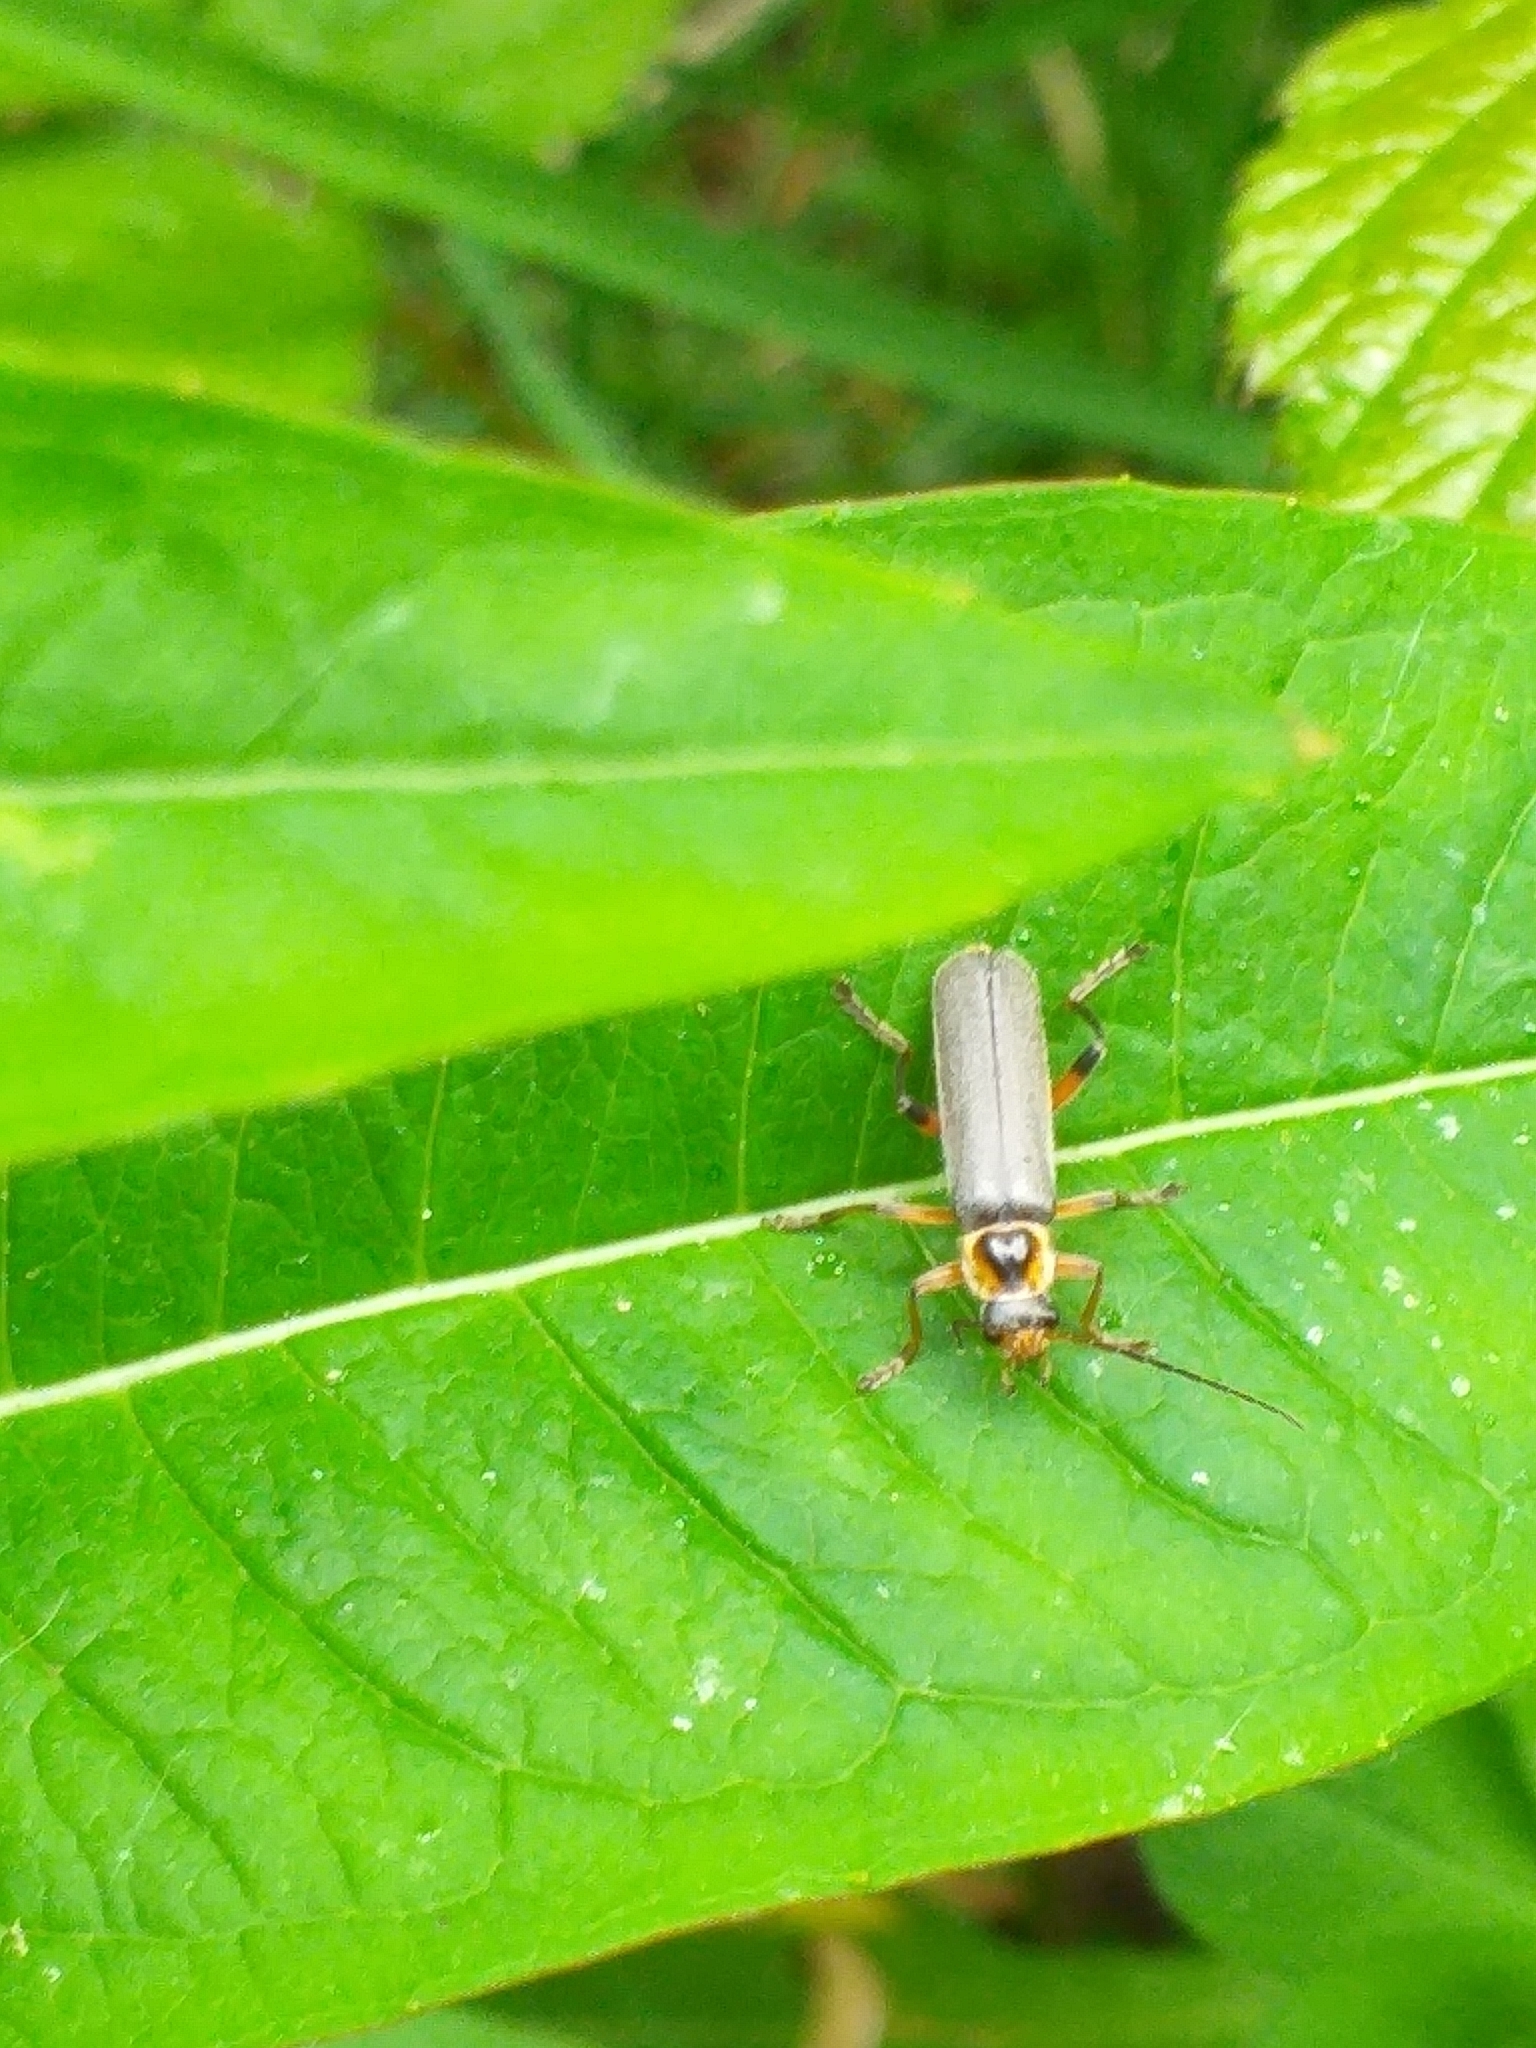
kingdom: Animalia
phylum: Arthropoda
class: Insecta
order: Coleoptera
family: Cantharidae
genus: Cantharis
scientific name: Cantharis nigricans
